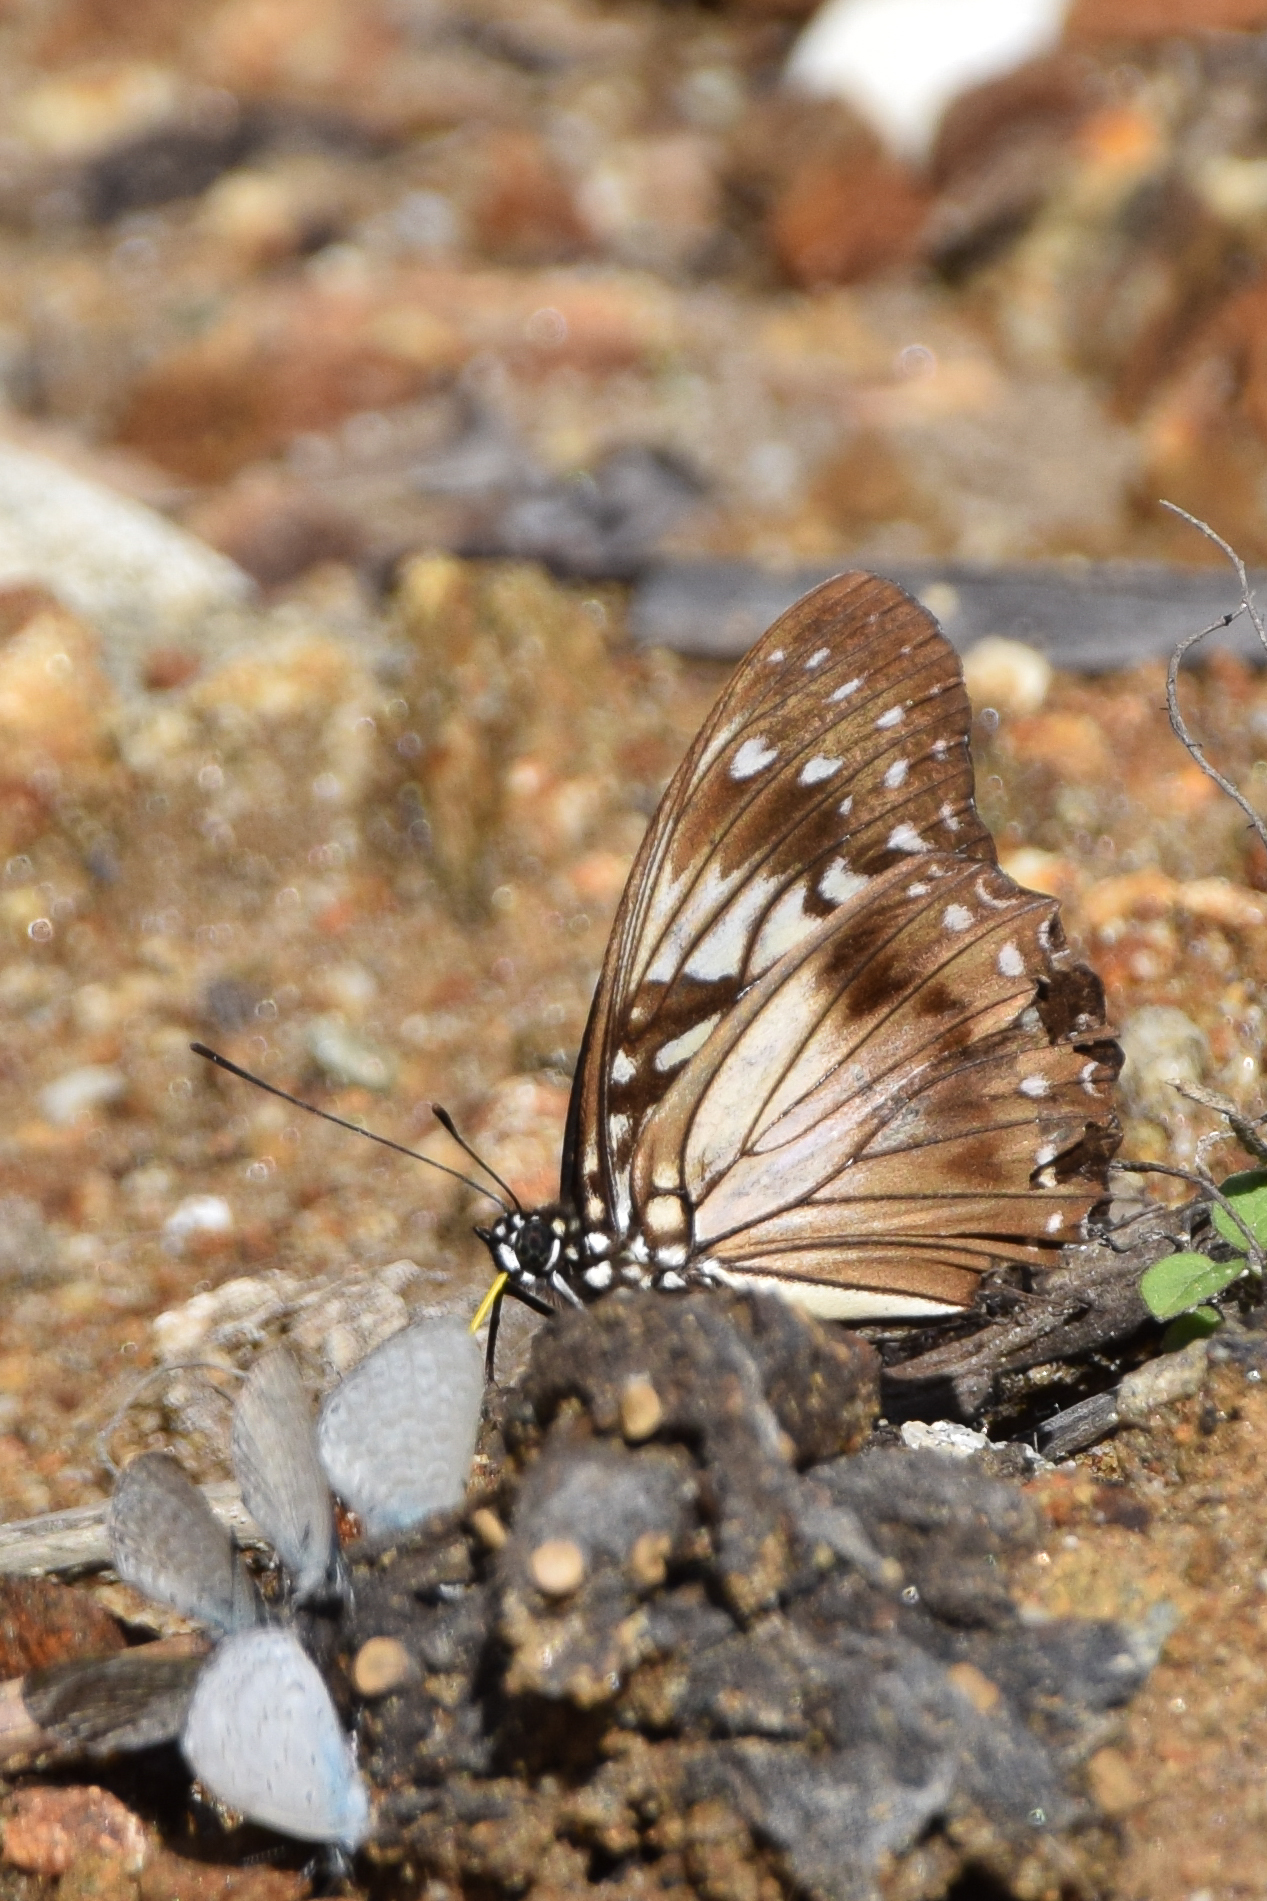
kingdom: Animalia
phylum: Arthropoda
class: Insecta
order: Lepidoptera
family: Nymphalidae
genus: Hestinalis
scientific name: Hestinalis divona
